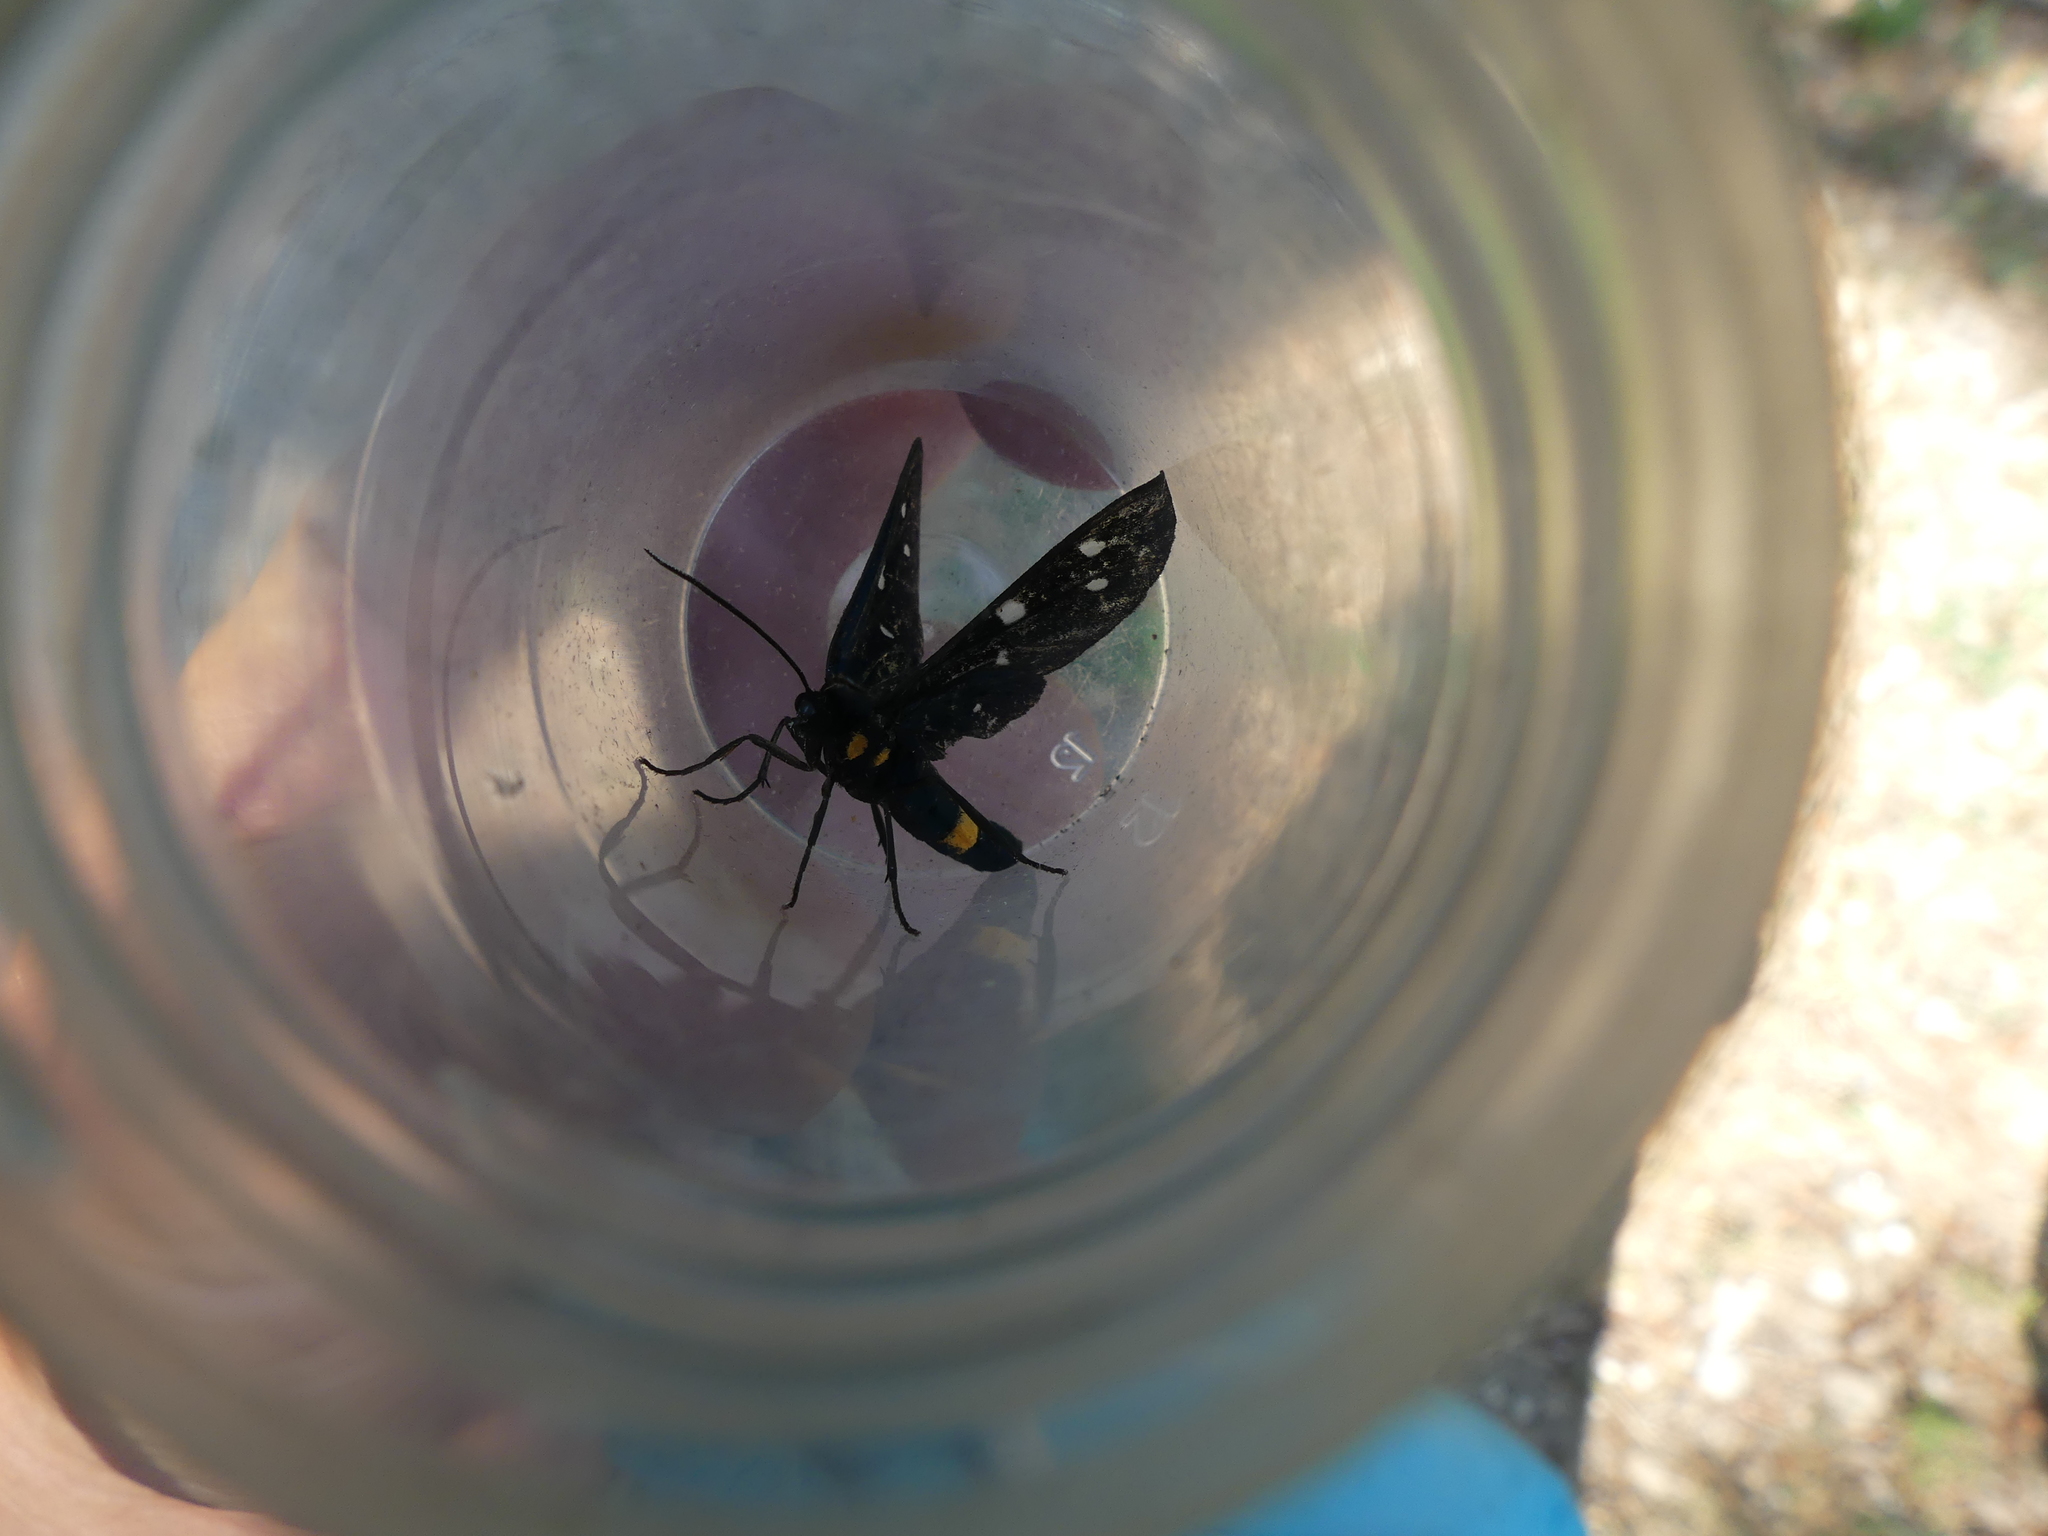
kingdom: Animalia
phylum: Arthropoda
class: Insecta
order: Lepidoptera
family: Erebidae
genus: Amata
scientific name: Amata phegea
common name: Nine-spotted
